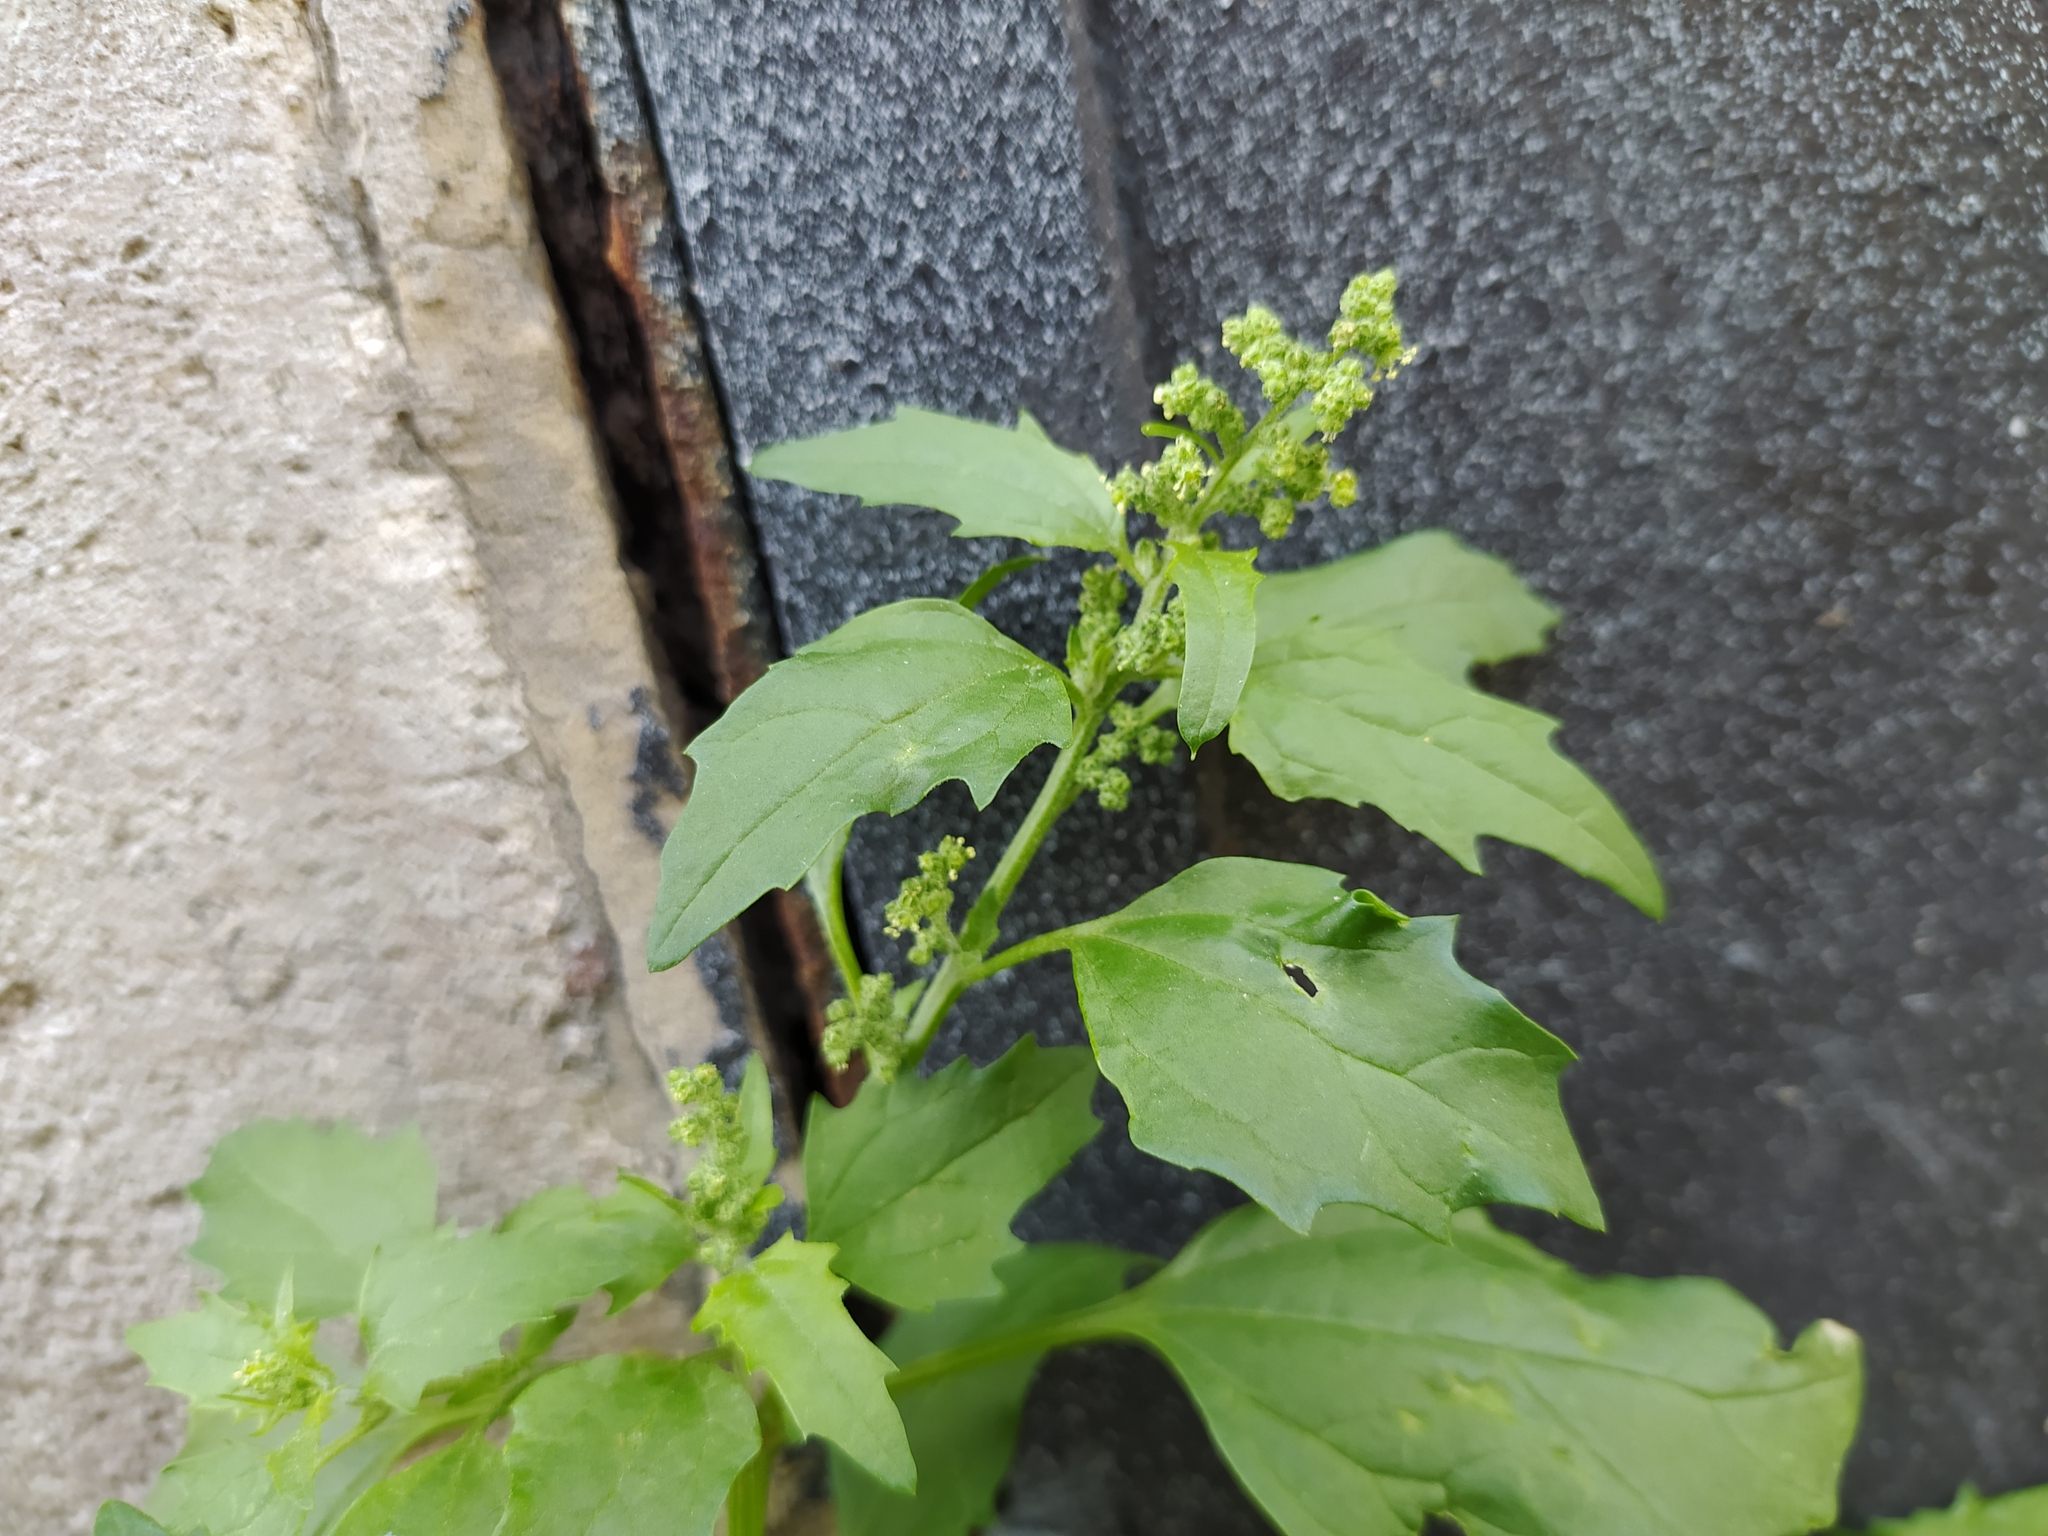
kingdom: Plantae
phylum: Tracheophyta
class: Magnoliopsida
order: Caryophyllales
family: Amaranthaceae
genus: Chenopodiastrum
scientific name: Chenopodiastrum murale
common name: Sowbane
